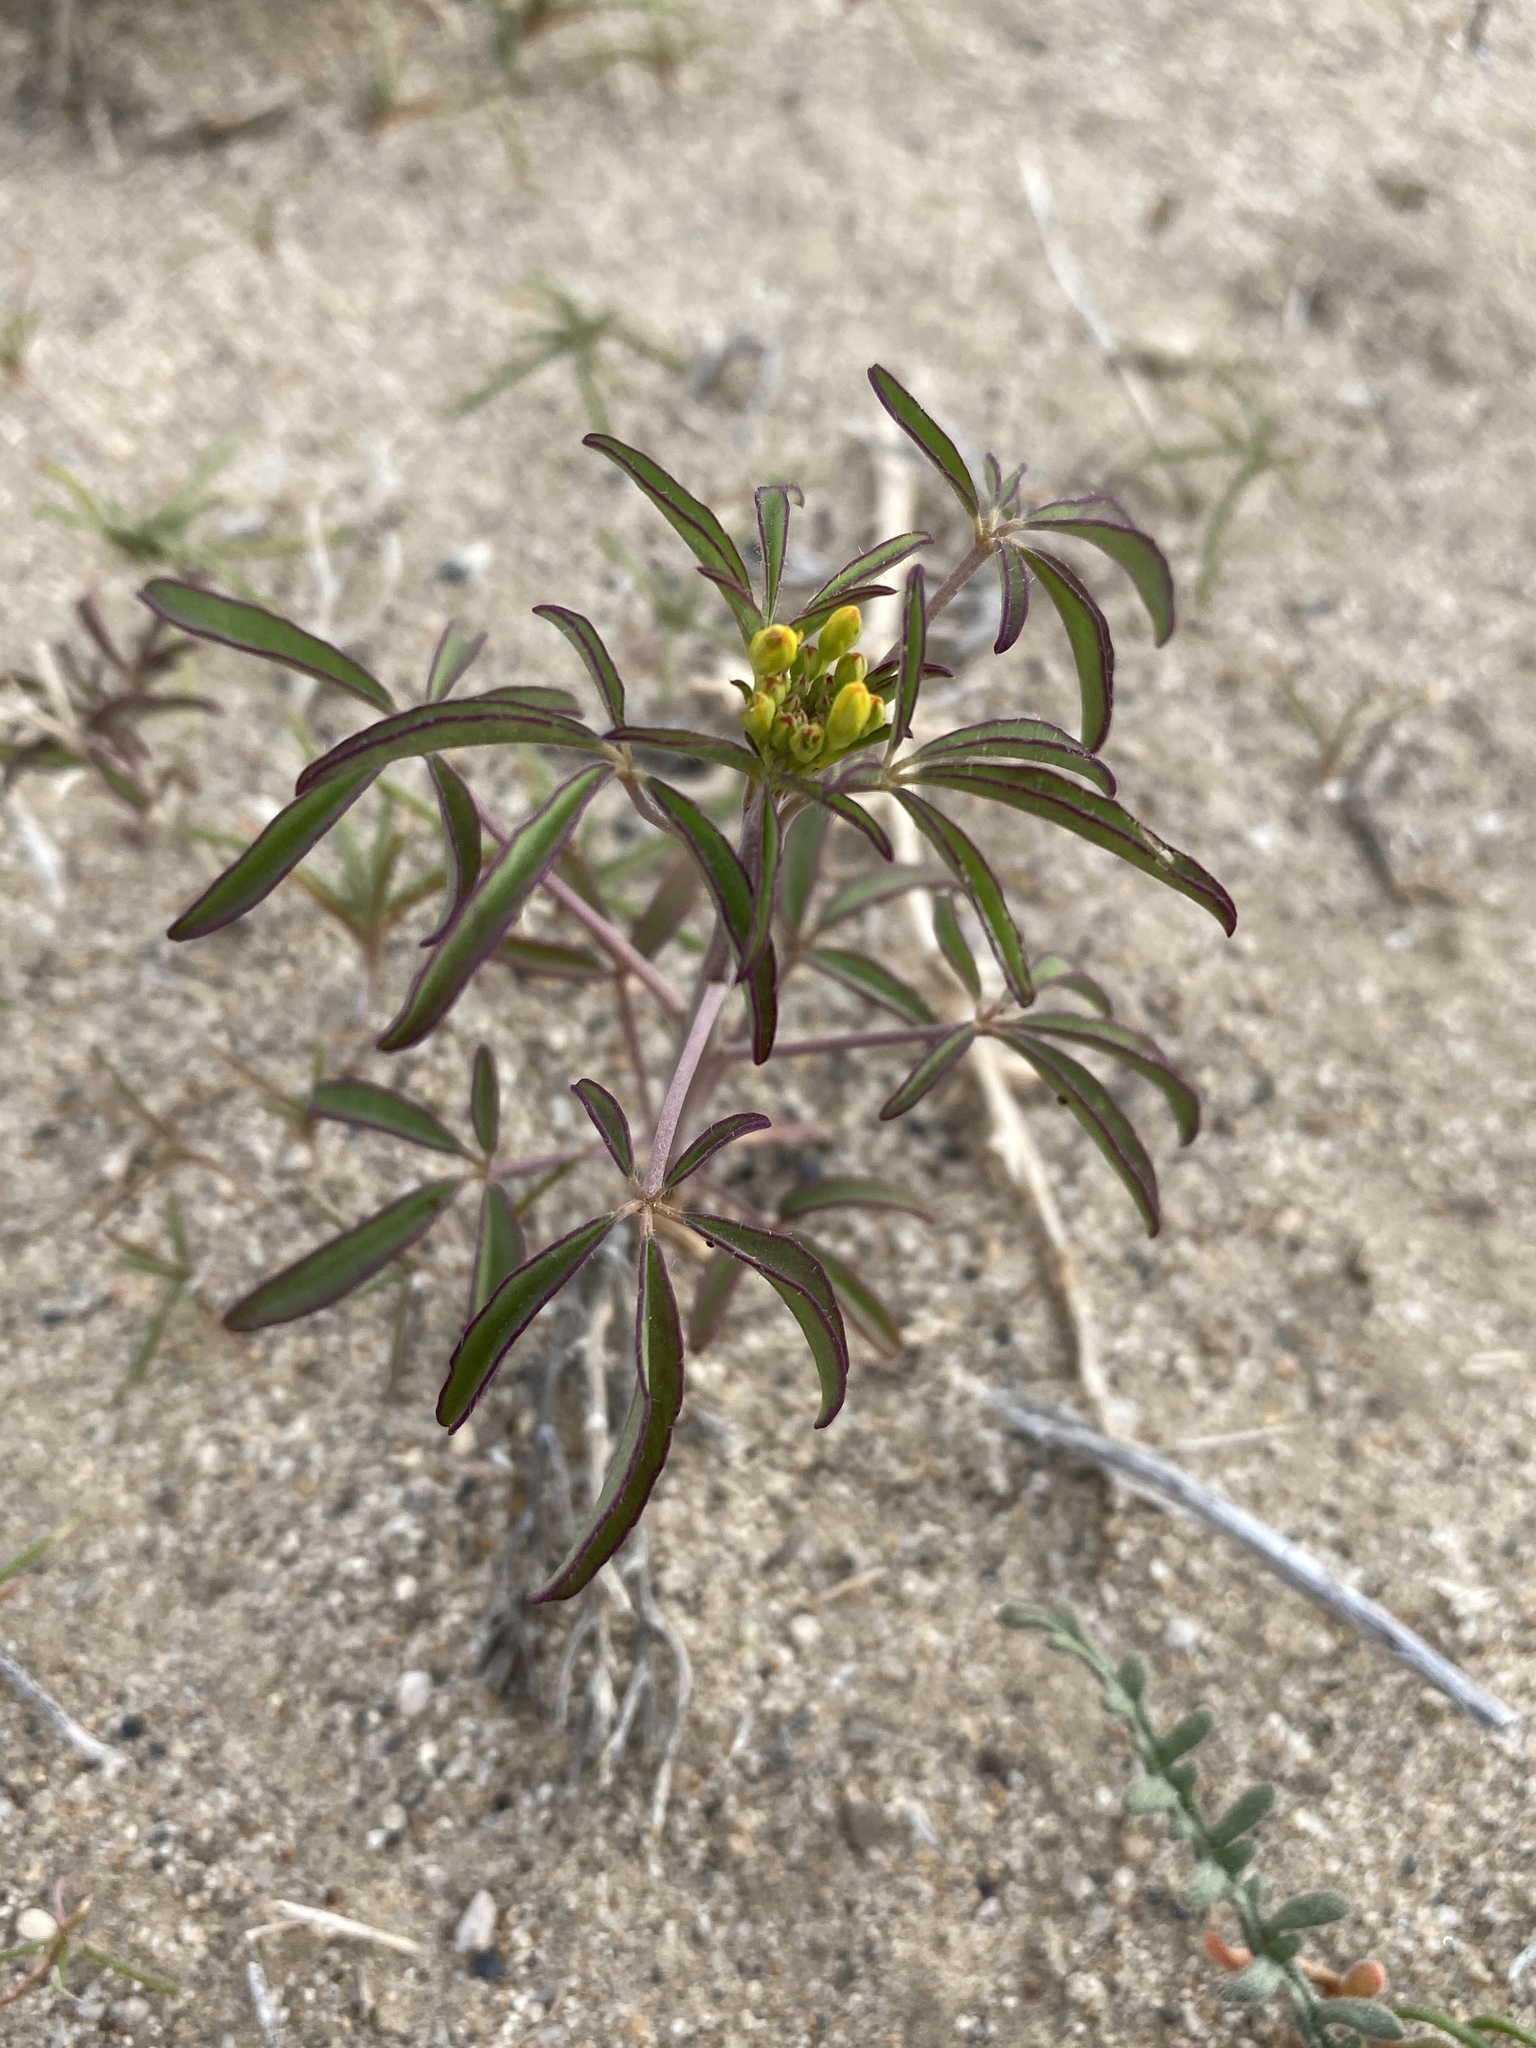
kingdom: Plantae
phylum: Tracheophyta
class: Magnoliopsida
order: Brassicales
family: Cleomaceae
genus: Cleomella
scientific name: Cleomella lutea
